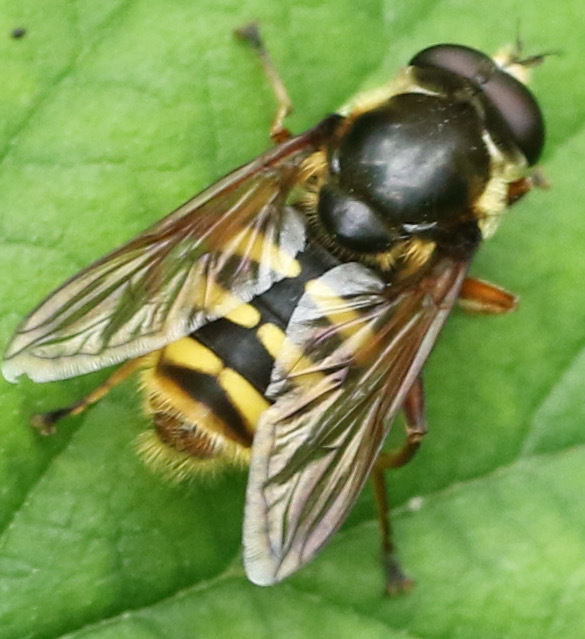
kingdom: Animalia
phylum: Arthropoda
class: Insecta
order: Diptera
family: Syrphidae
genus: Sericomyia
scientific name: Sericomyia silentis
